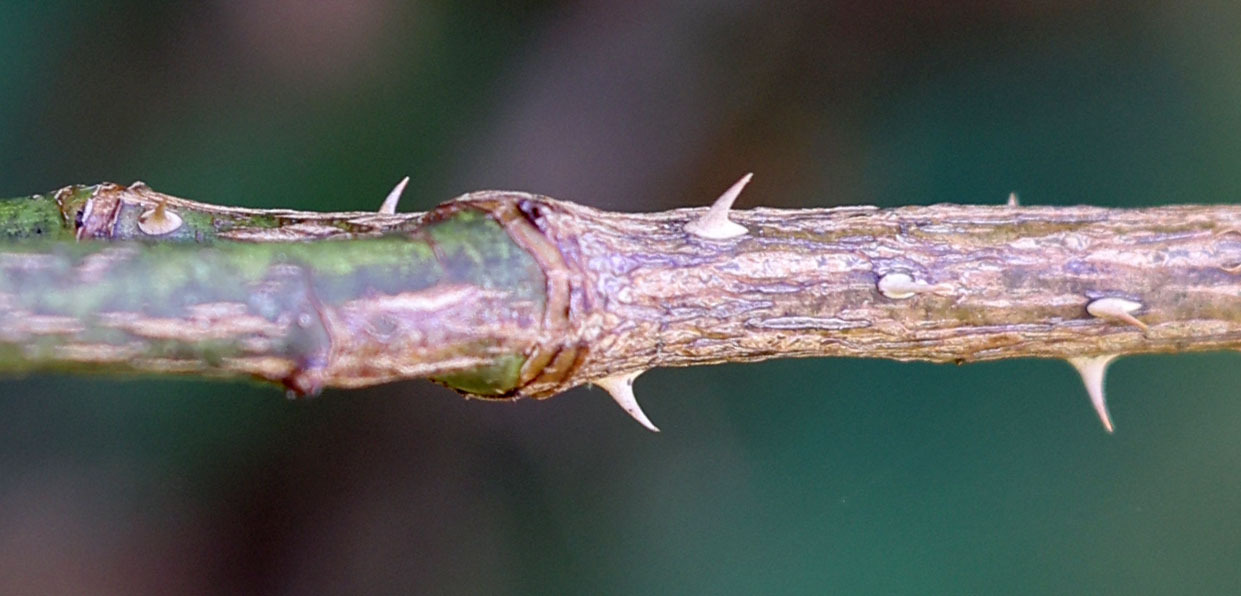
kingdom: Plantae
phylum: Tracheophyta
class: Magnoliopsida
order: Rosales
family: Rosaceae
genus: Rosa
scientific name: Rosa multiflora
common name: Multiflora rose
